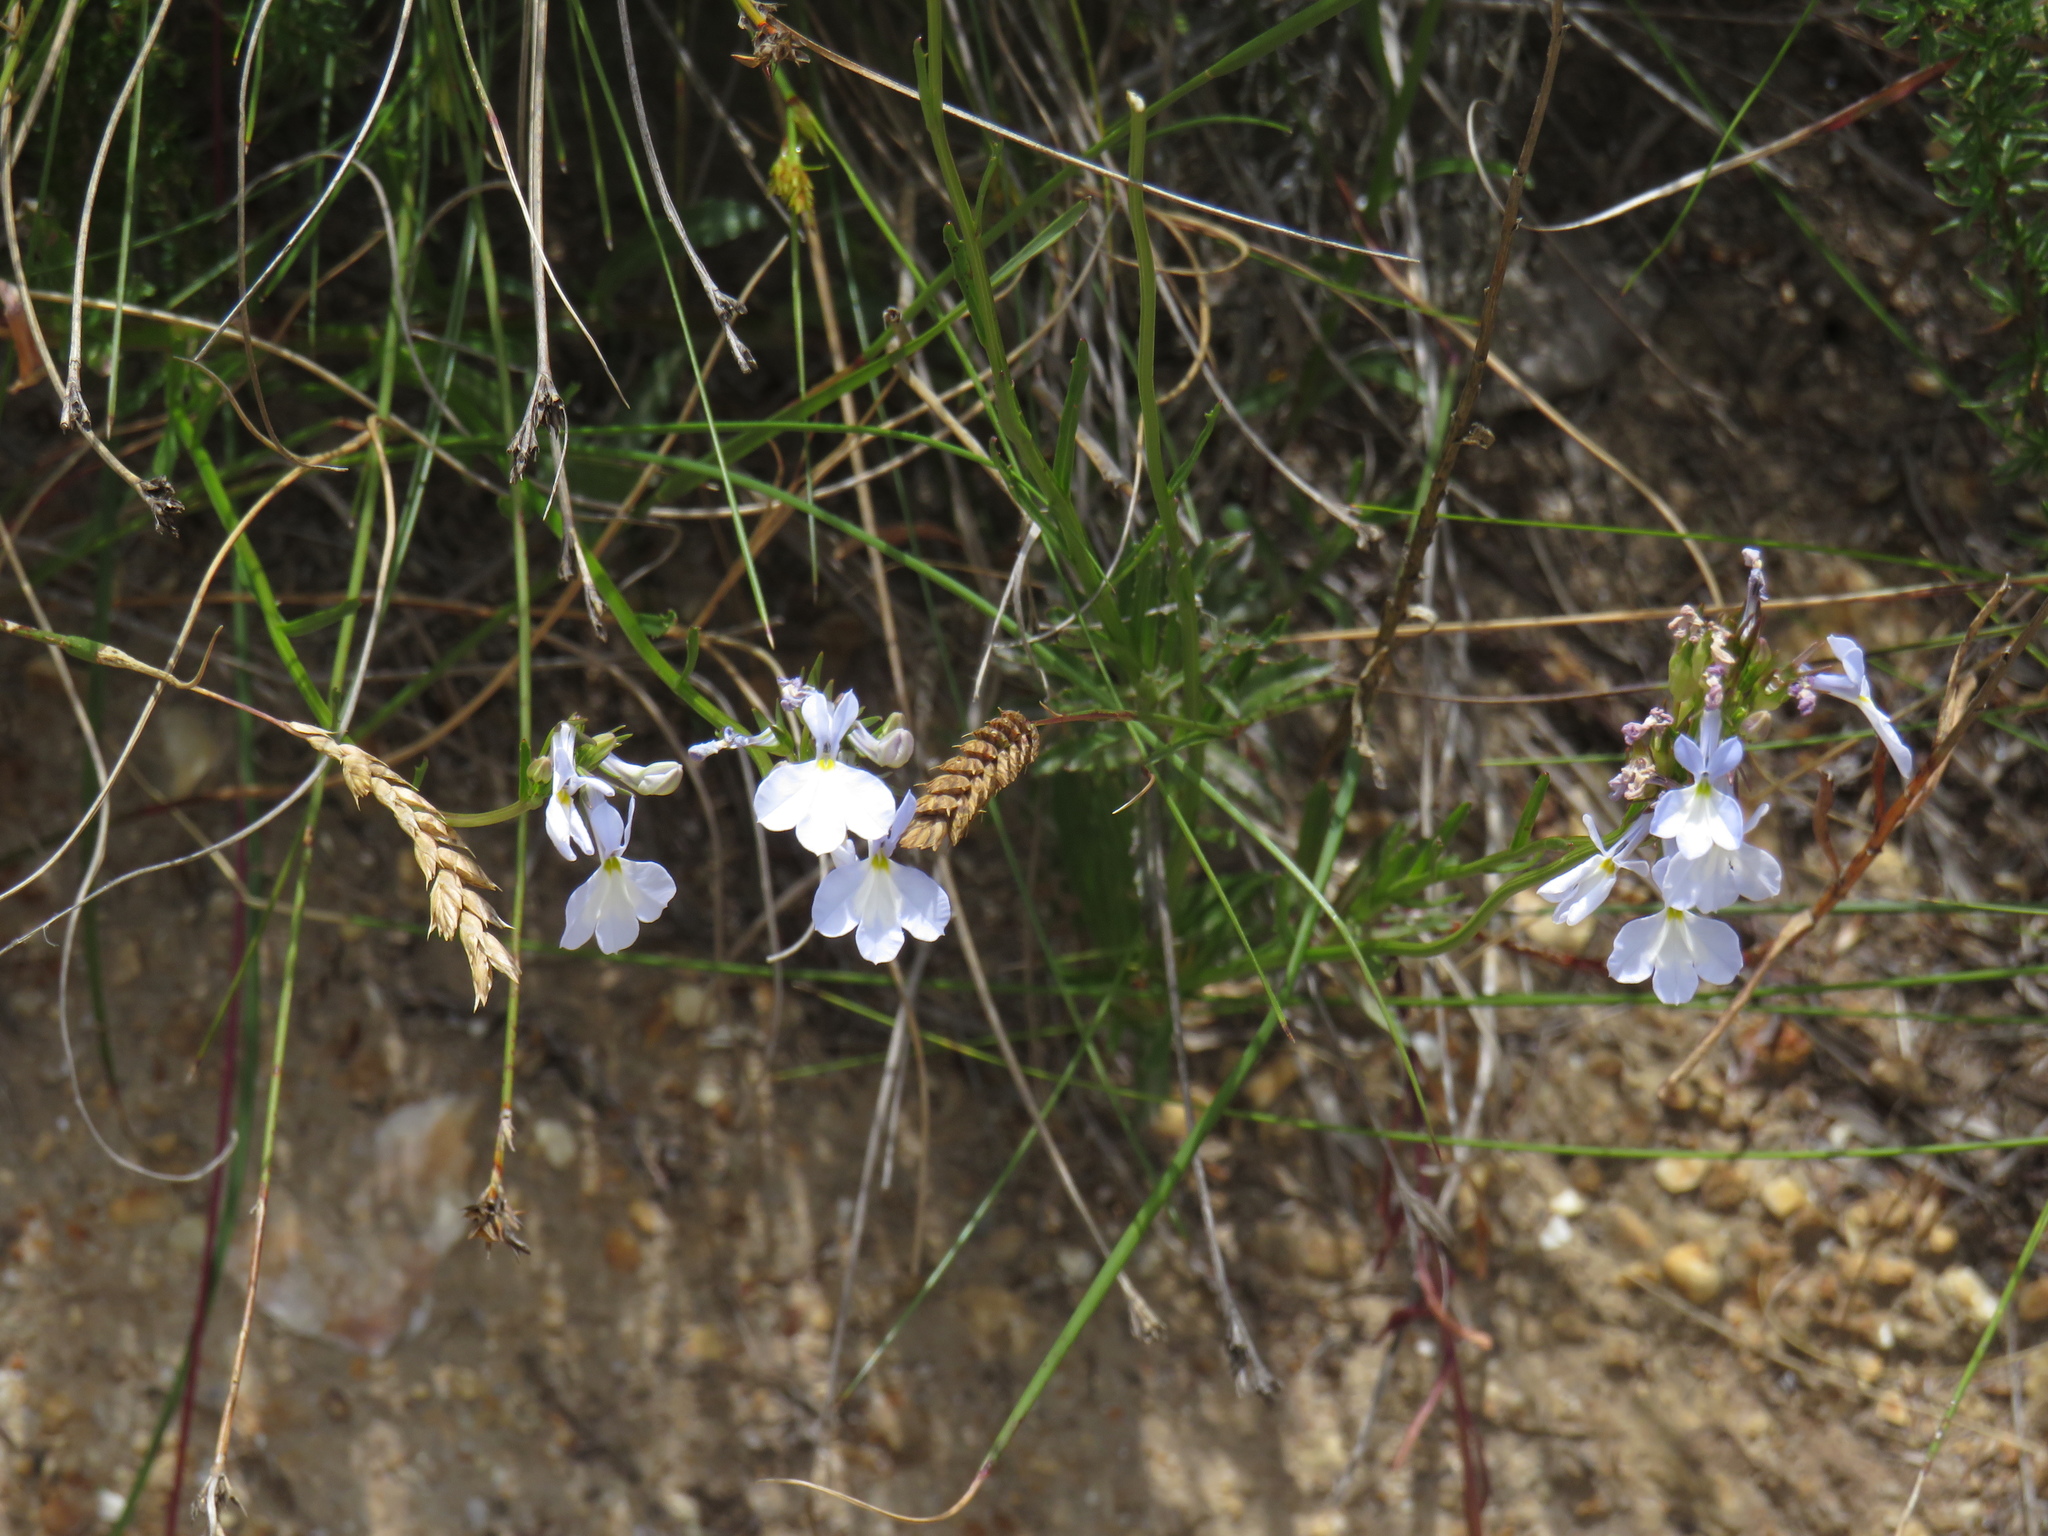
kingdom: Plantae
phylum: Tracheophyta
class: Liliopsida
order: Poales
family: Poaceae
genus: Tribolium
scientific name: Tribolium uniolae
